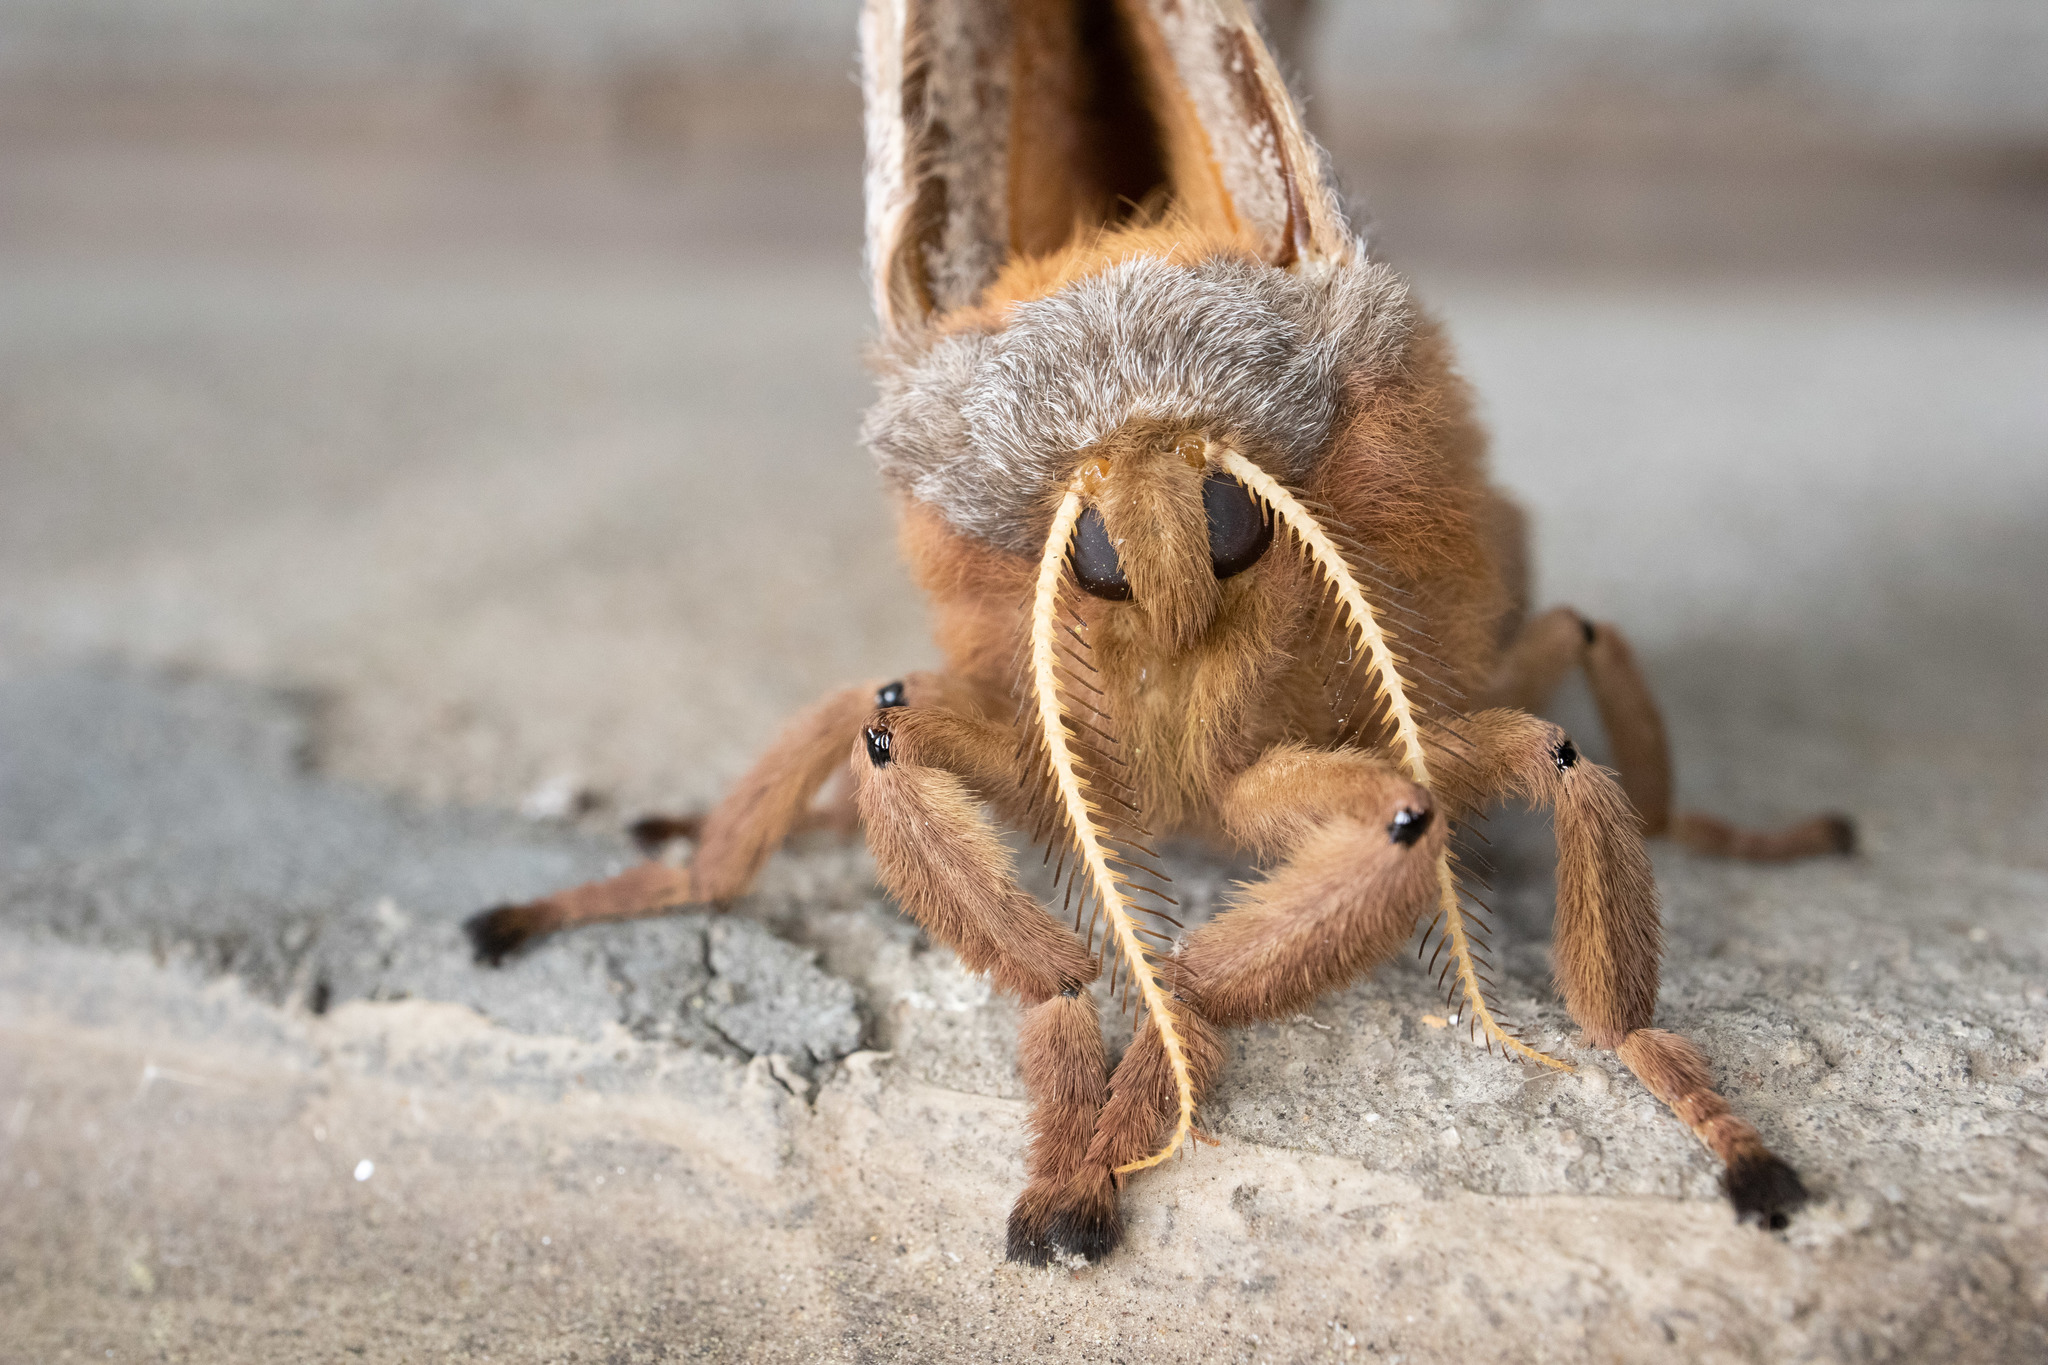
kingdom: Animalia
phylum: Arthropoda
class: Insecta
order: Lepidoptera
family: Saturniidae
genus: Antheraea
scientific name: Antheraea polyphemus
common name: Polyphemus moth
